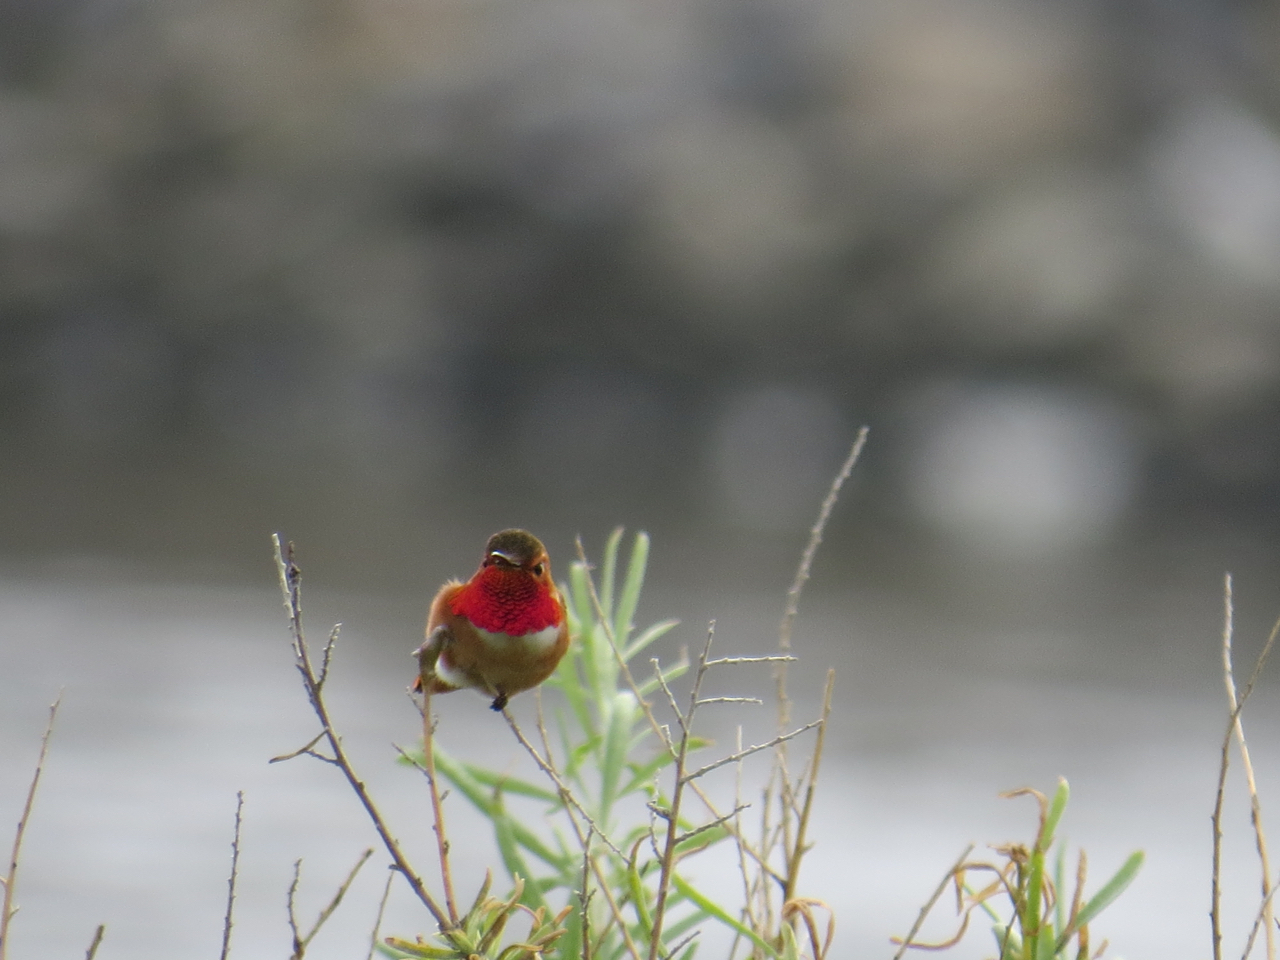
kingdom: Animalia
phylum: Chordata
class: Aves
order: Apodiformes
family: Trochilidae
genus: Selasphorus
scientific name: Selasphorus sasin
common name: Allen's hummingbird
